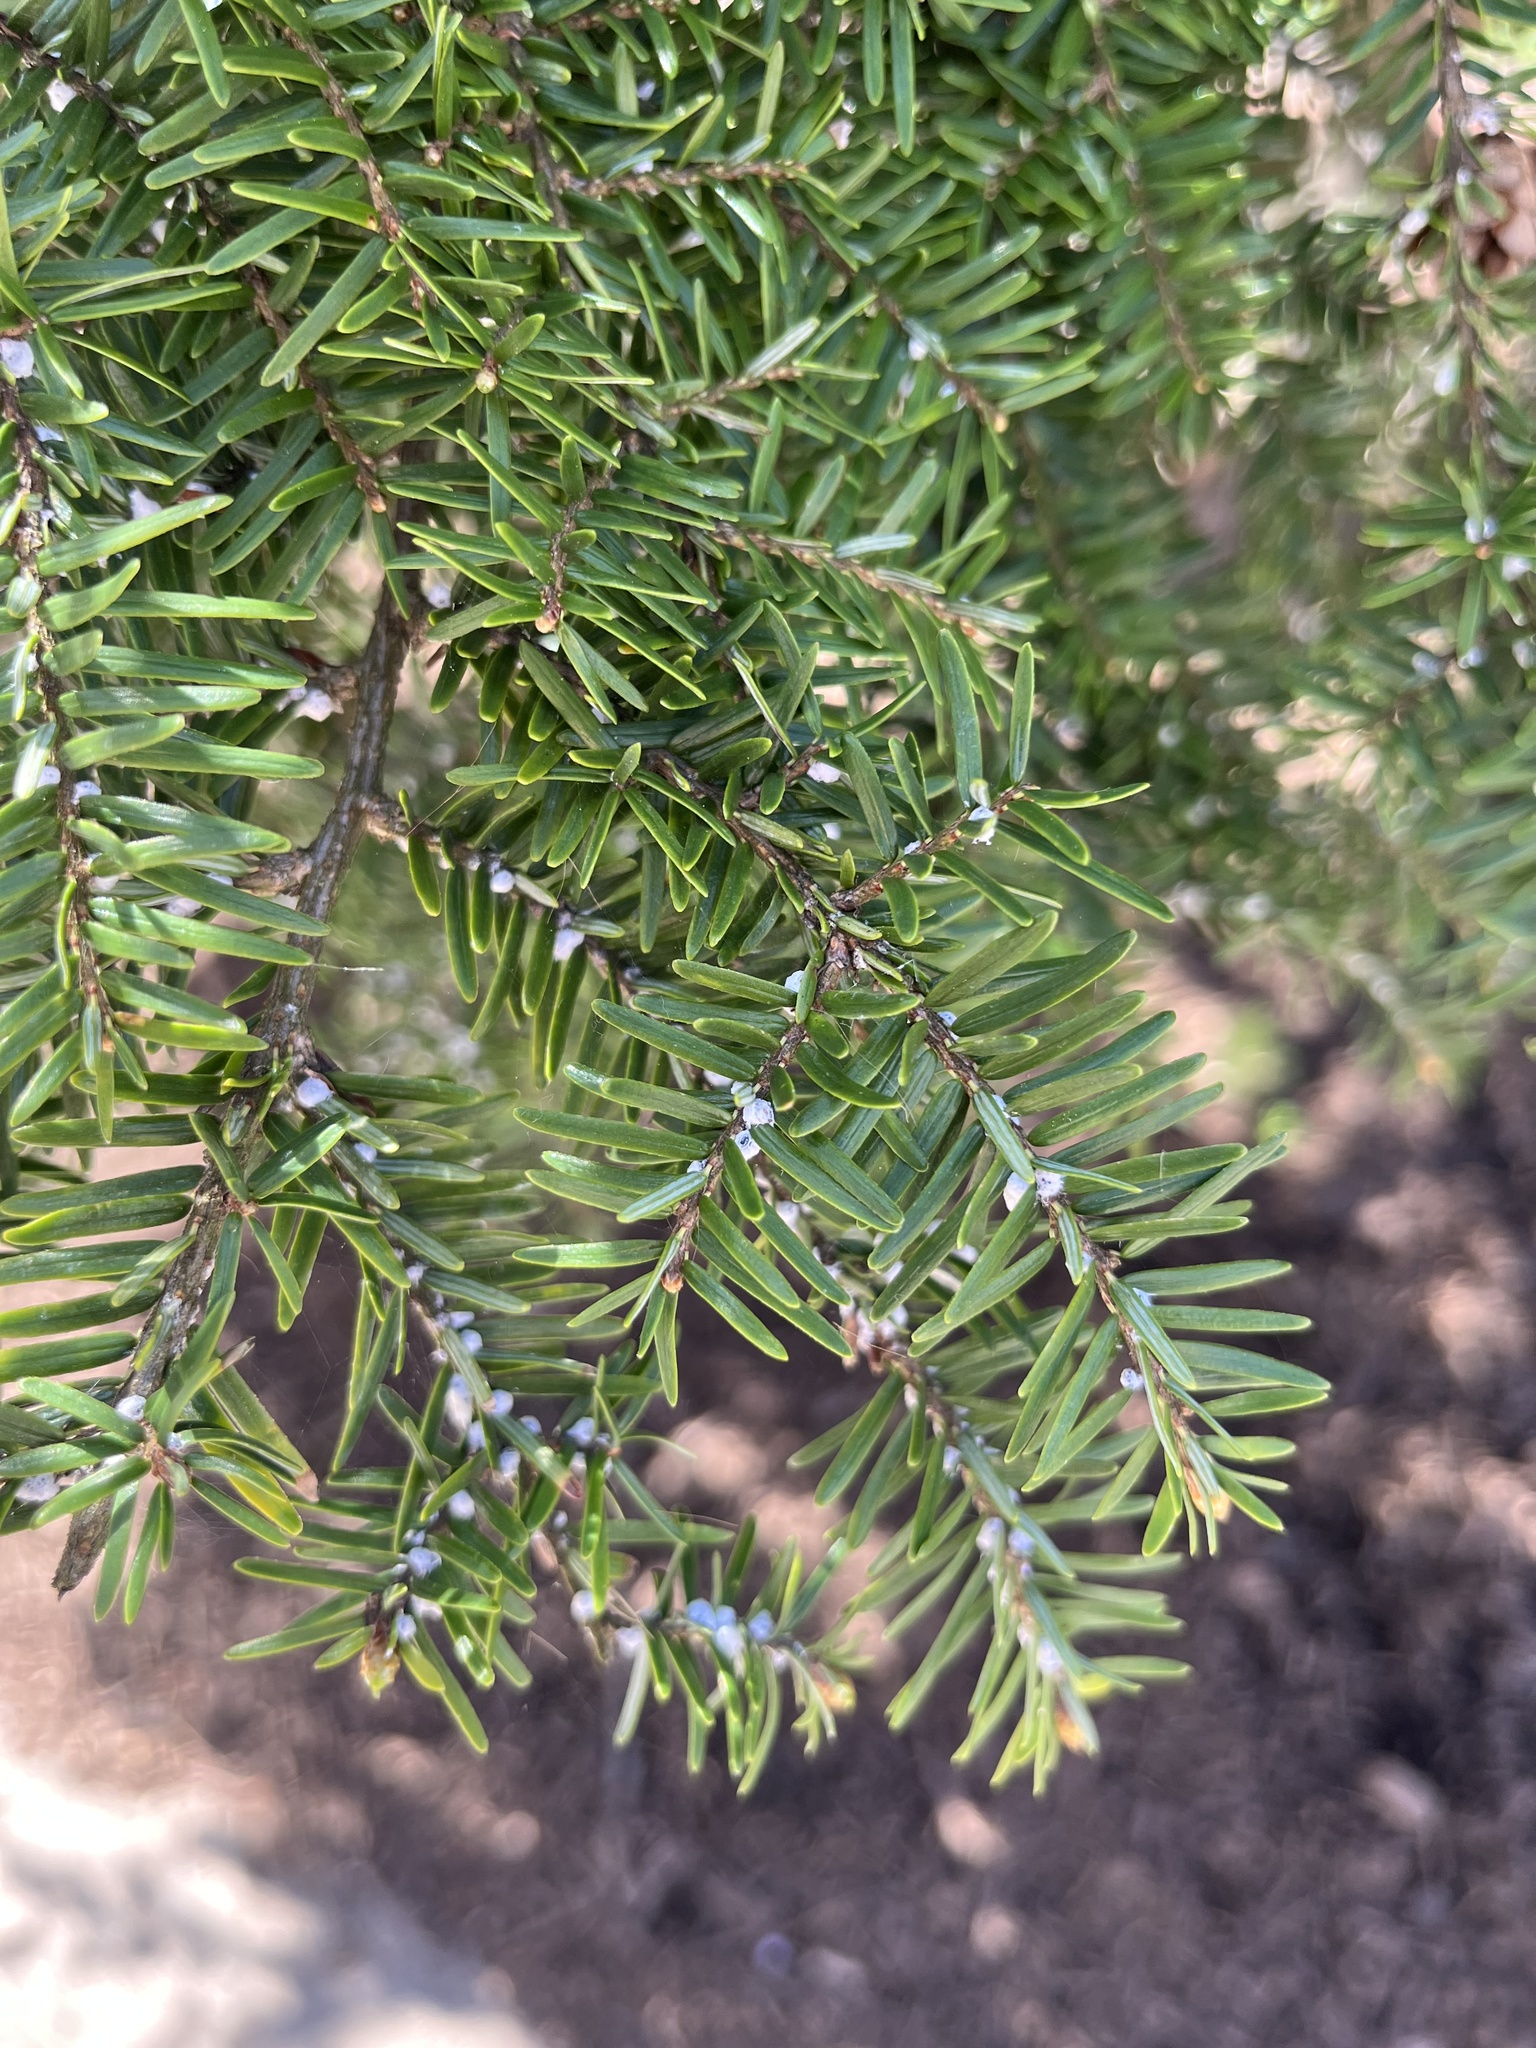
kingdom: Plantae
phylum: Tracheophyta
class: Pinopsida
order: Pinales
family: Pinaceae
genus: Tsuga
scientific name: Tsuga canadensis
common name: Eastern hemlock
